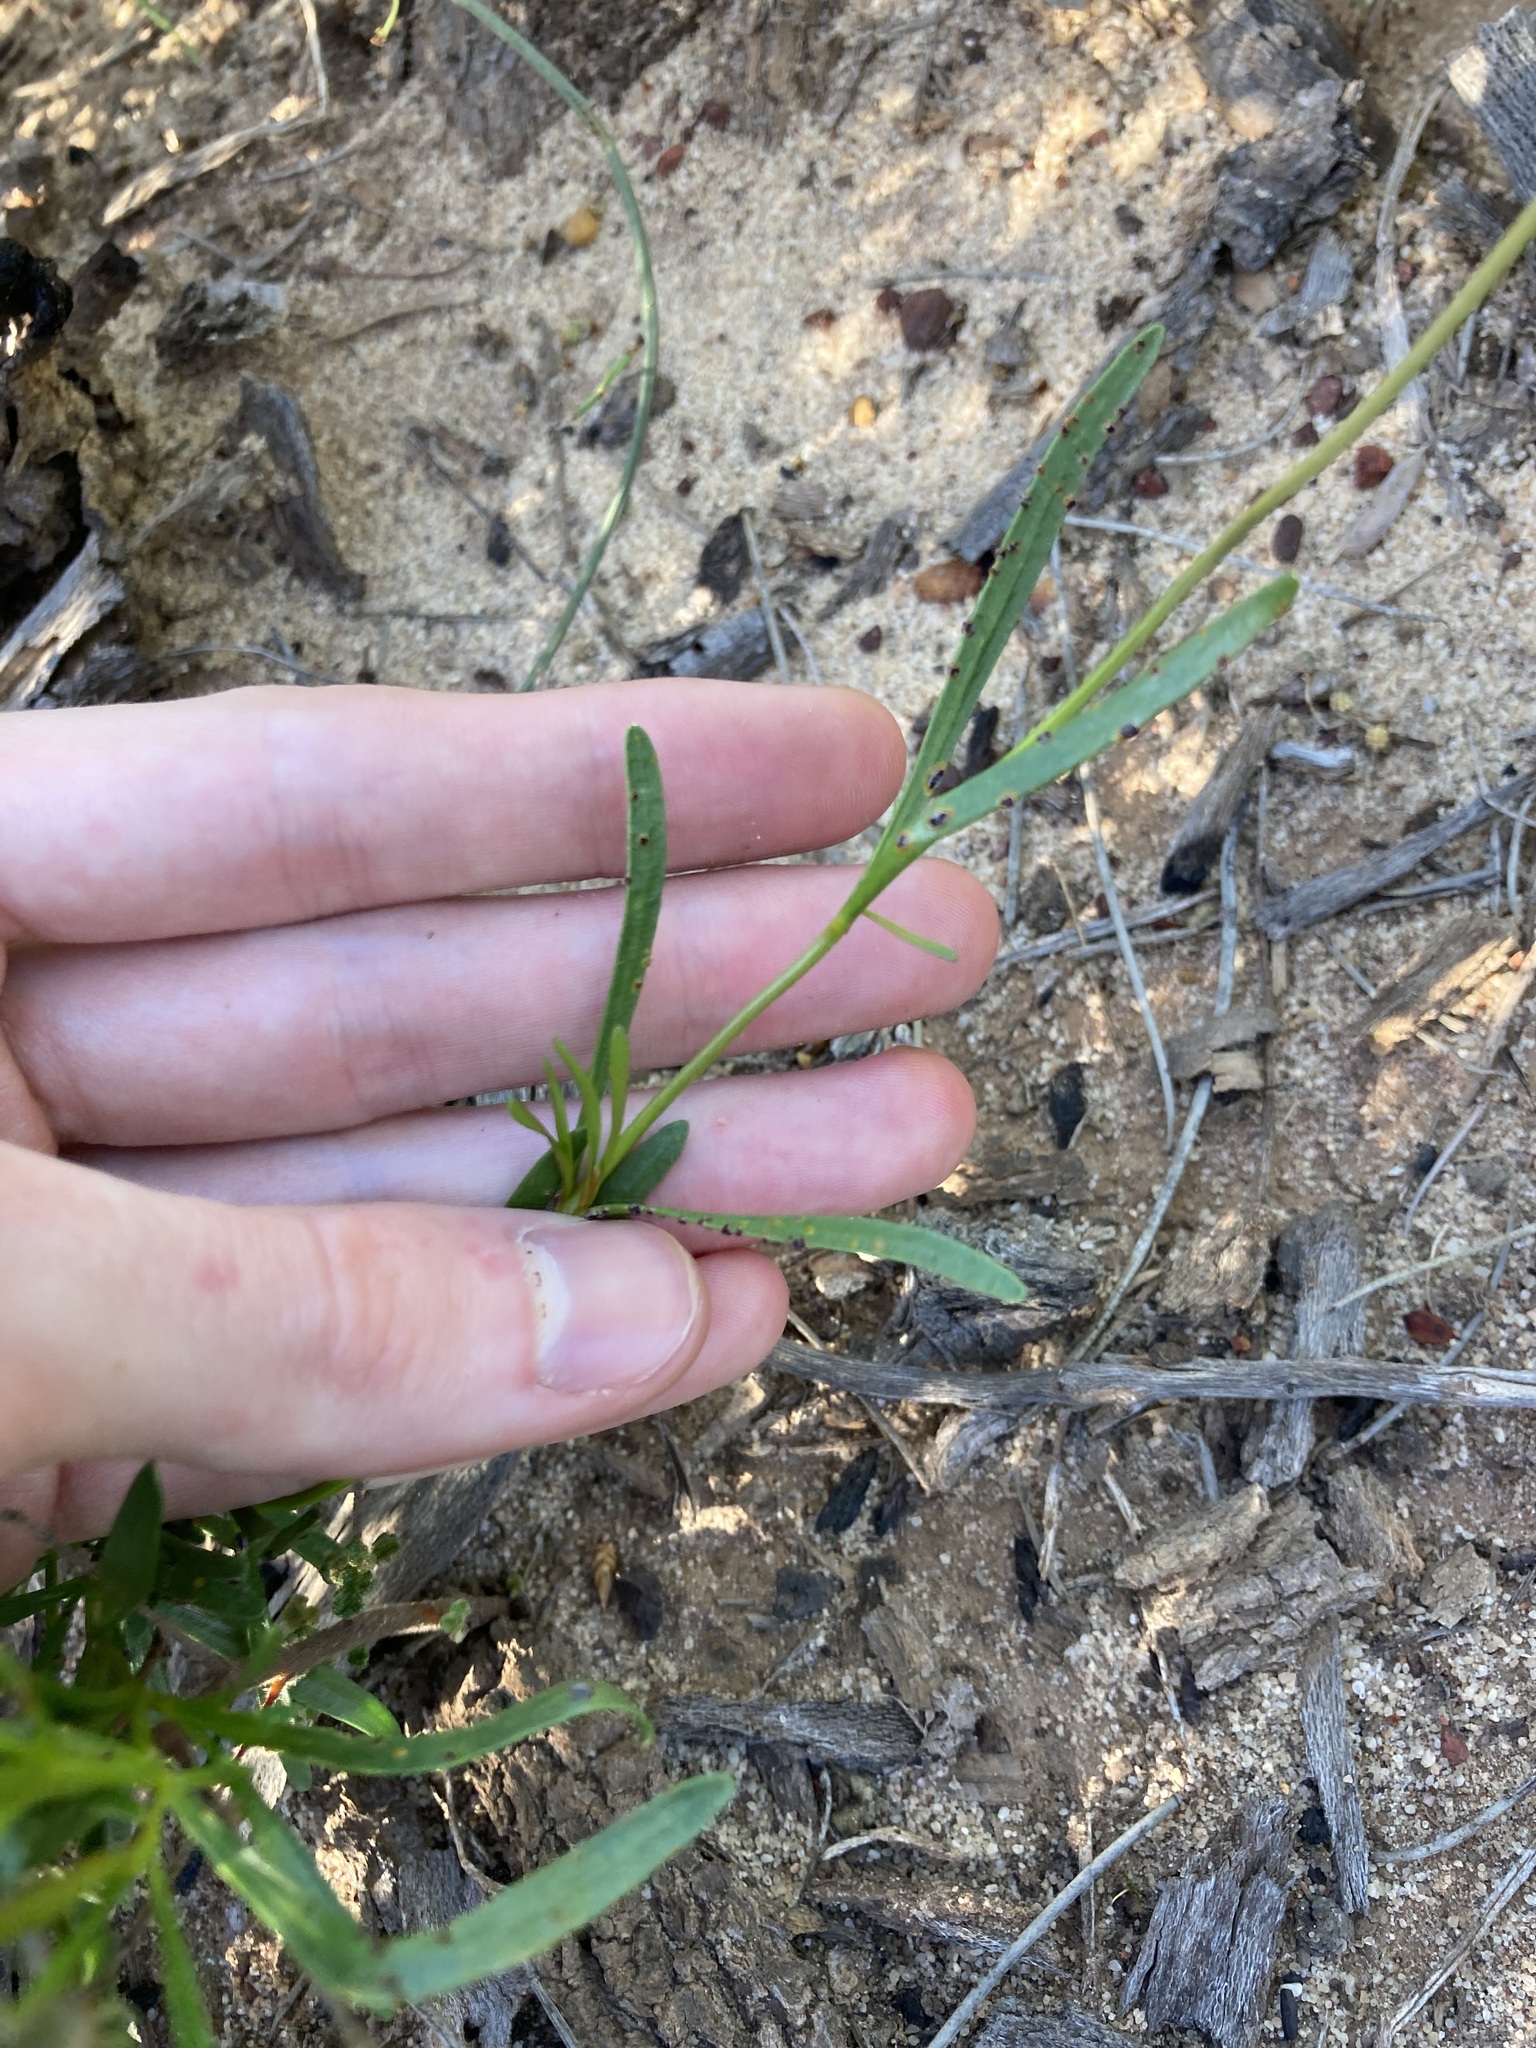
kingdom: Plantae
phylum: Tracheophyta
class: Magnoliopsida
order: Sapindales
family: Rutaceae
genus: Boronia
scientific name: Boronia cymosa
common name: Granite boronia
